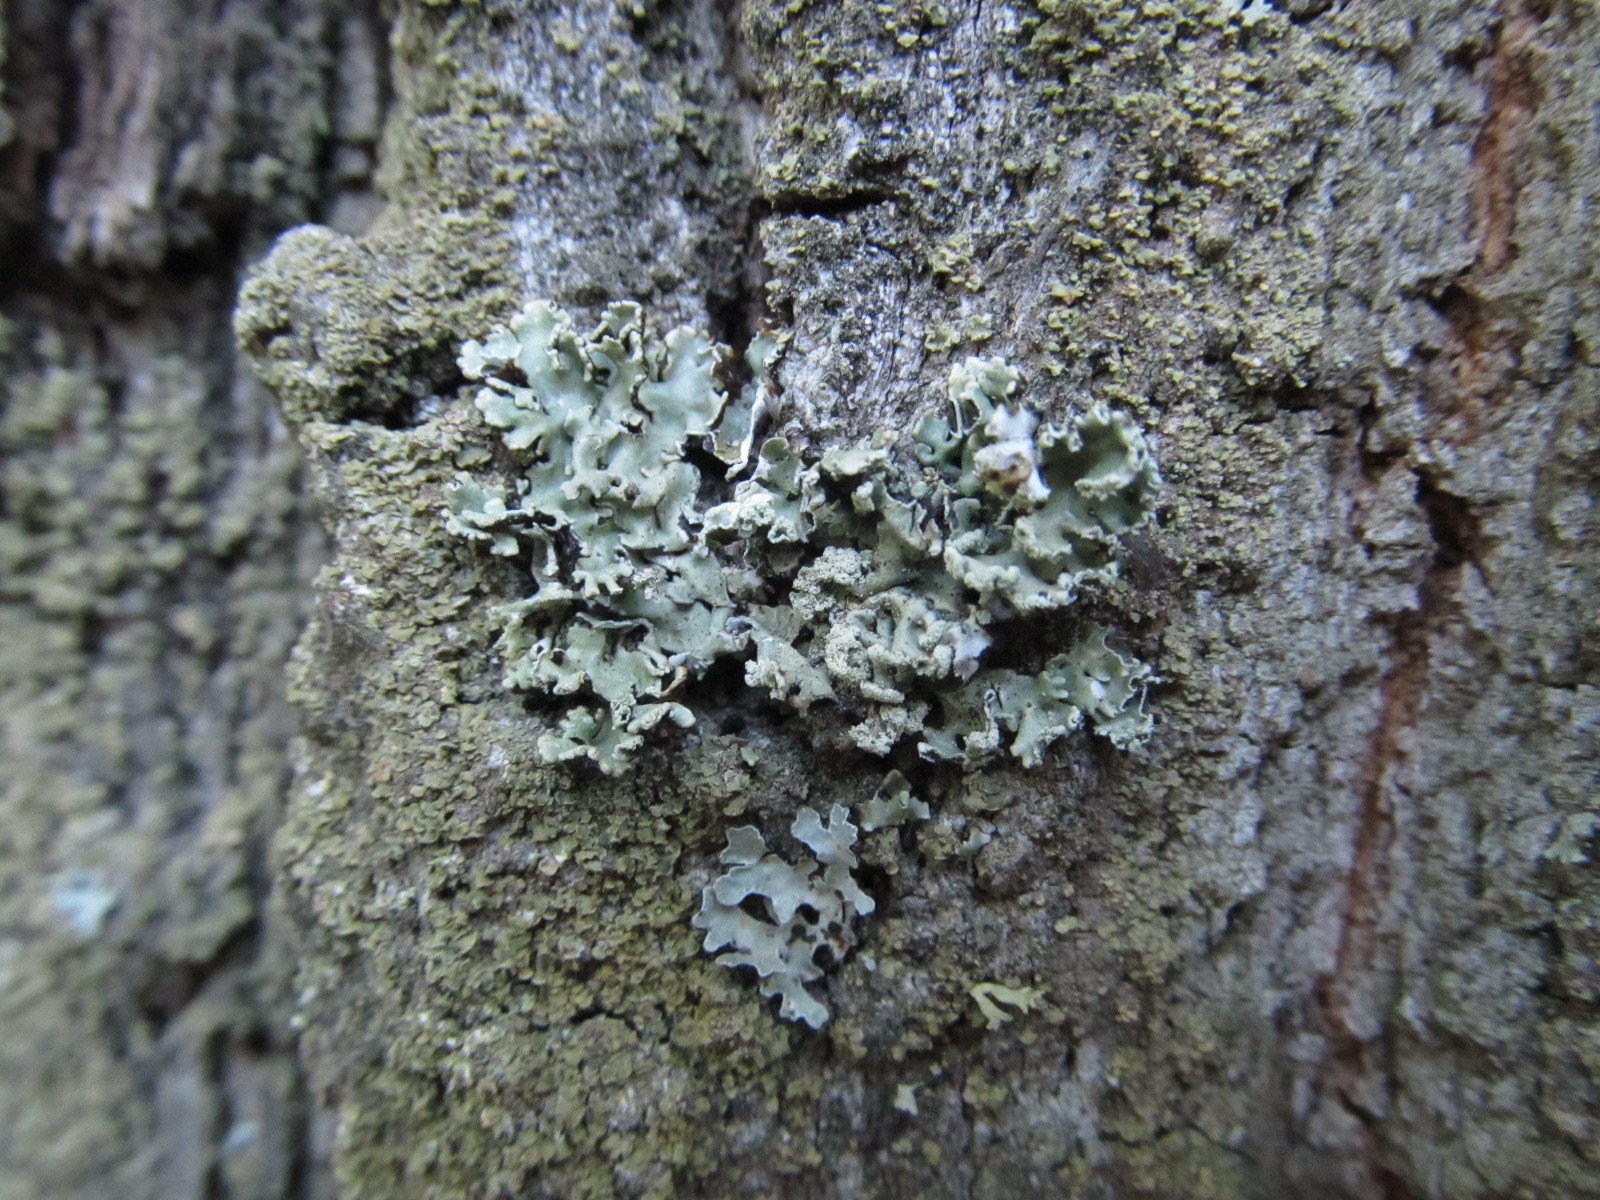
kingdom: Fungi
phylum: Ascomycota
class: Lecanoromycetes
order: Lecanorales
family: Parmeliaceae
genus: Hypogymnia
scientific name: Hypogymnia physodes
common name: Dark crottle
